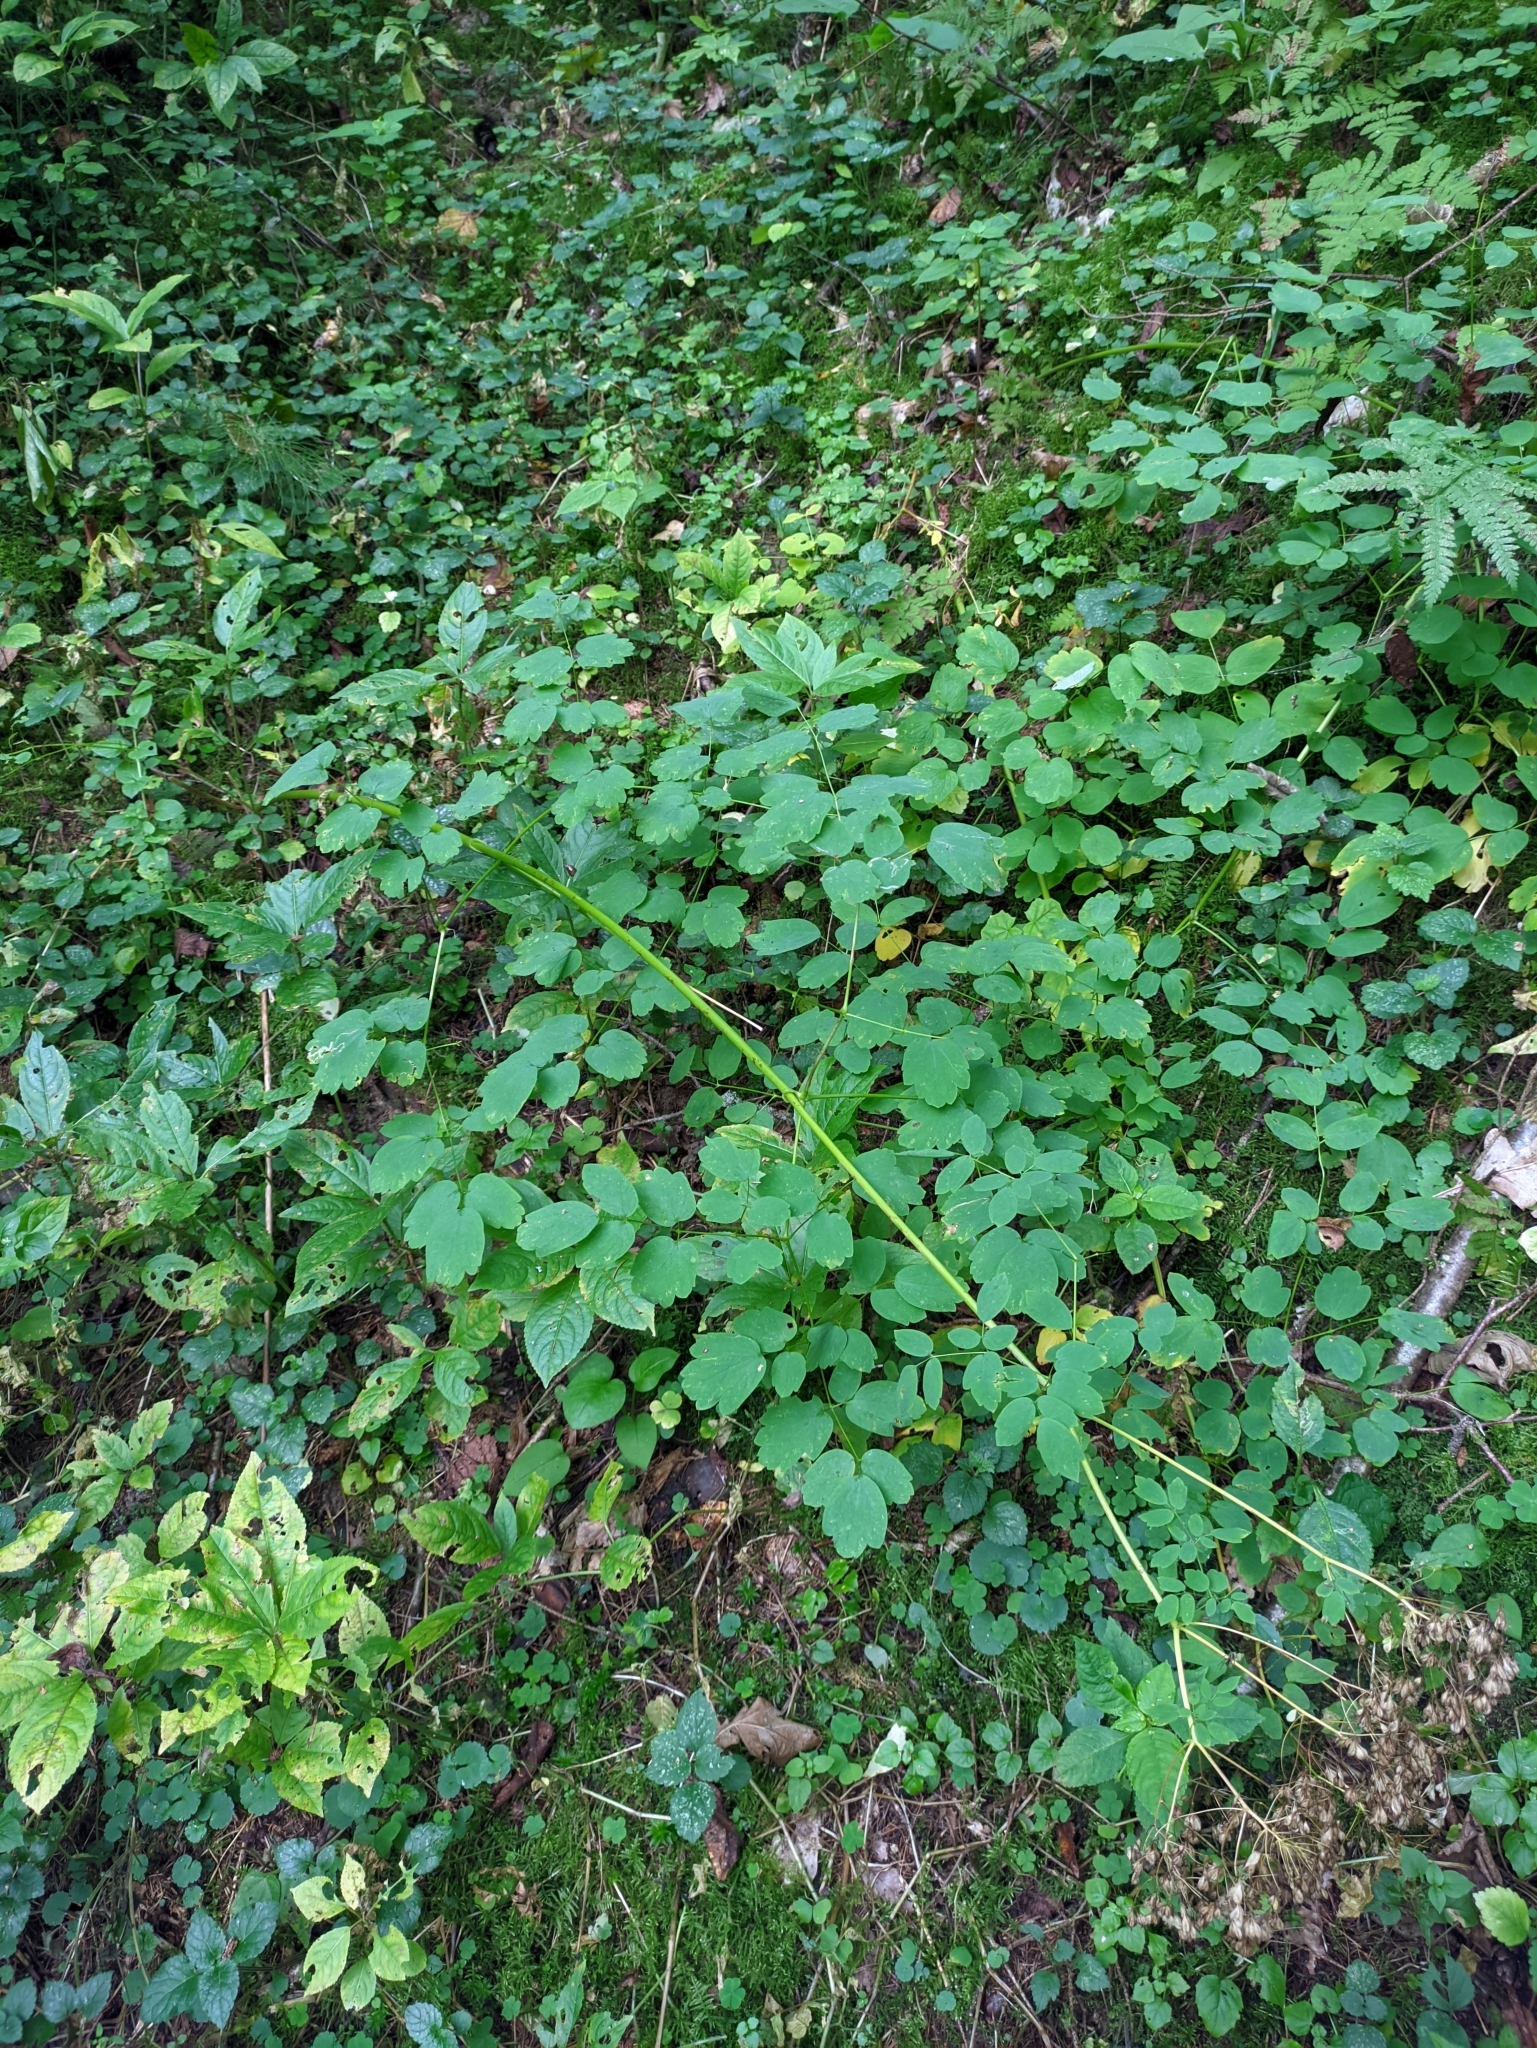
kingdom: Plantae
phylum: Tracheophyta
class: Magnoliopsida
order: Ranunculales
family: Ranunculaceae
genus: Thalictrum
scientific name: Thalictrum aquilegiifolium
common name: French meadow-rue
